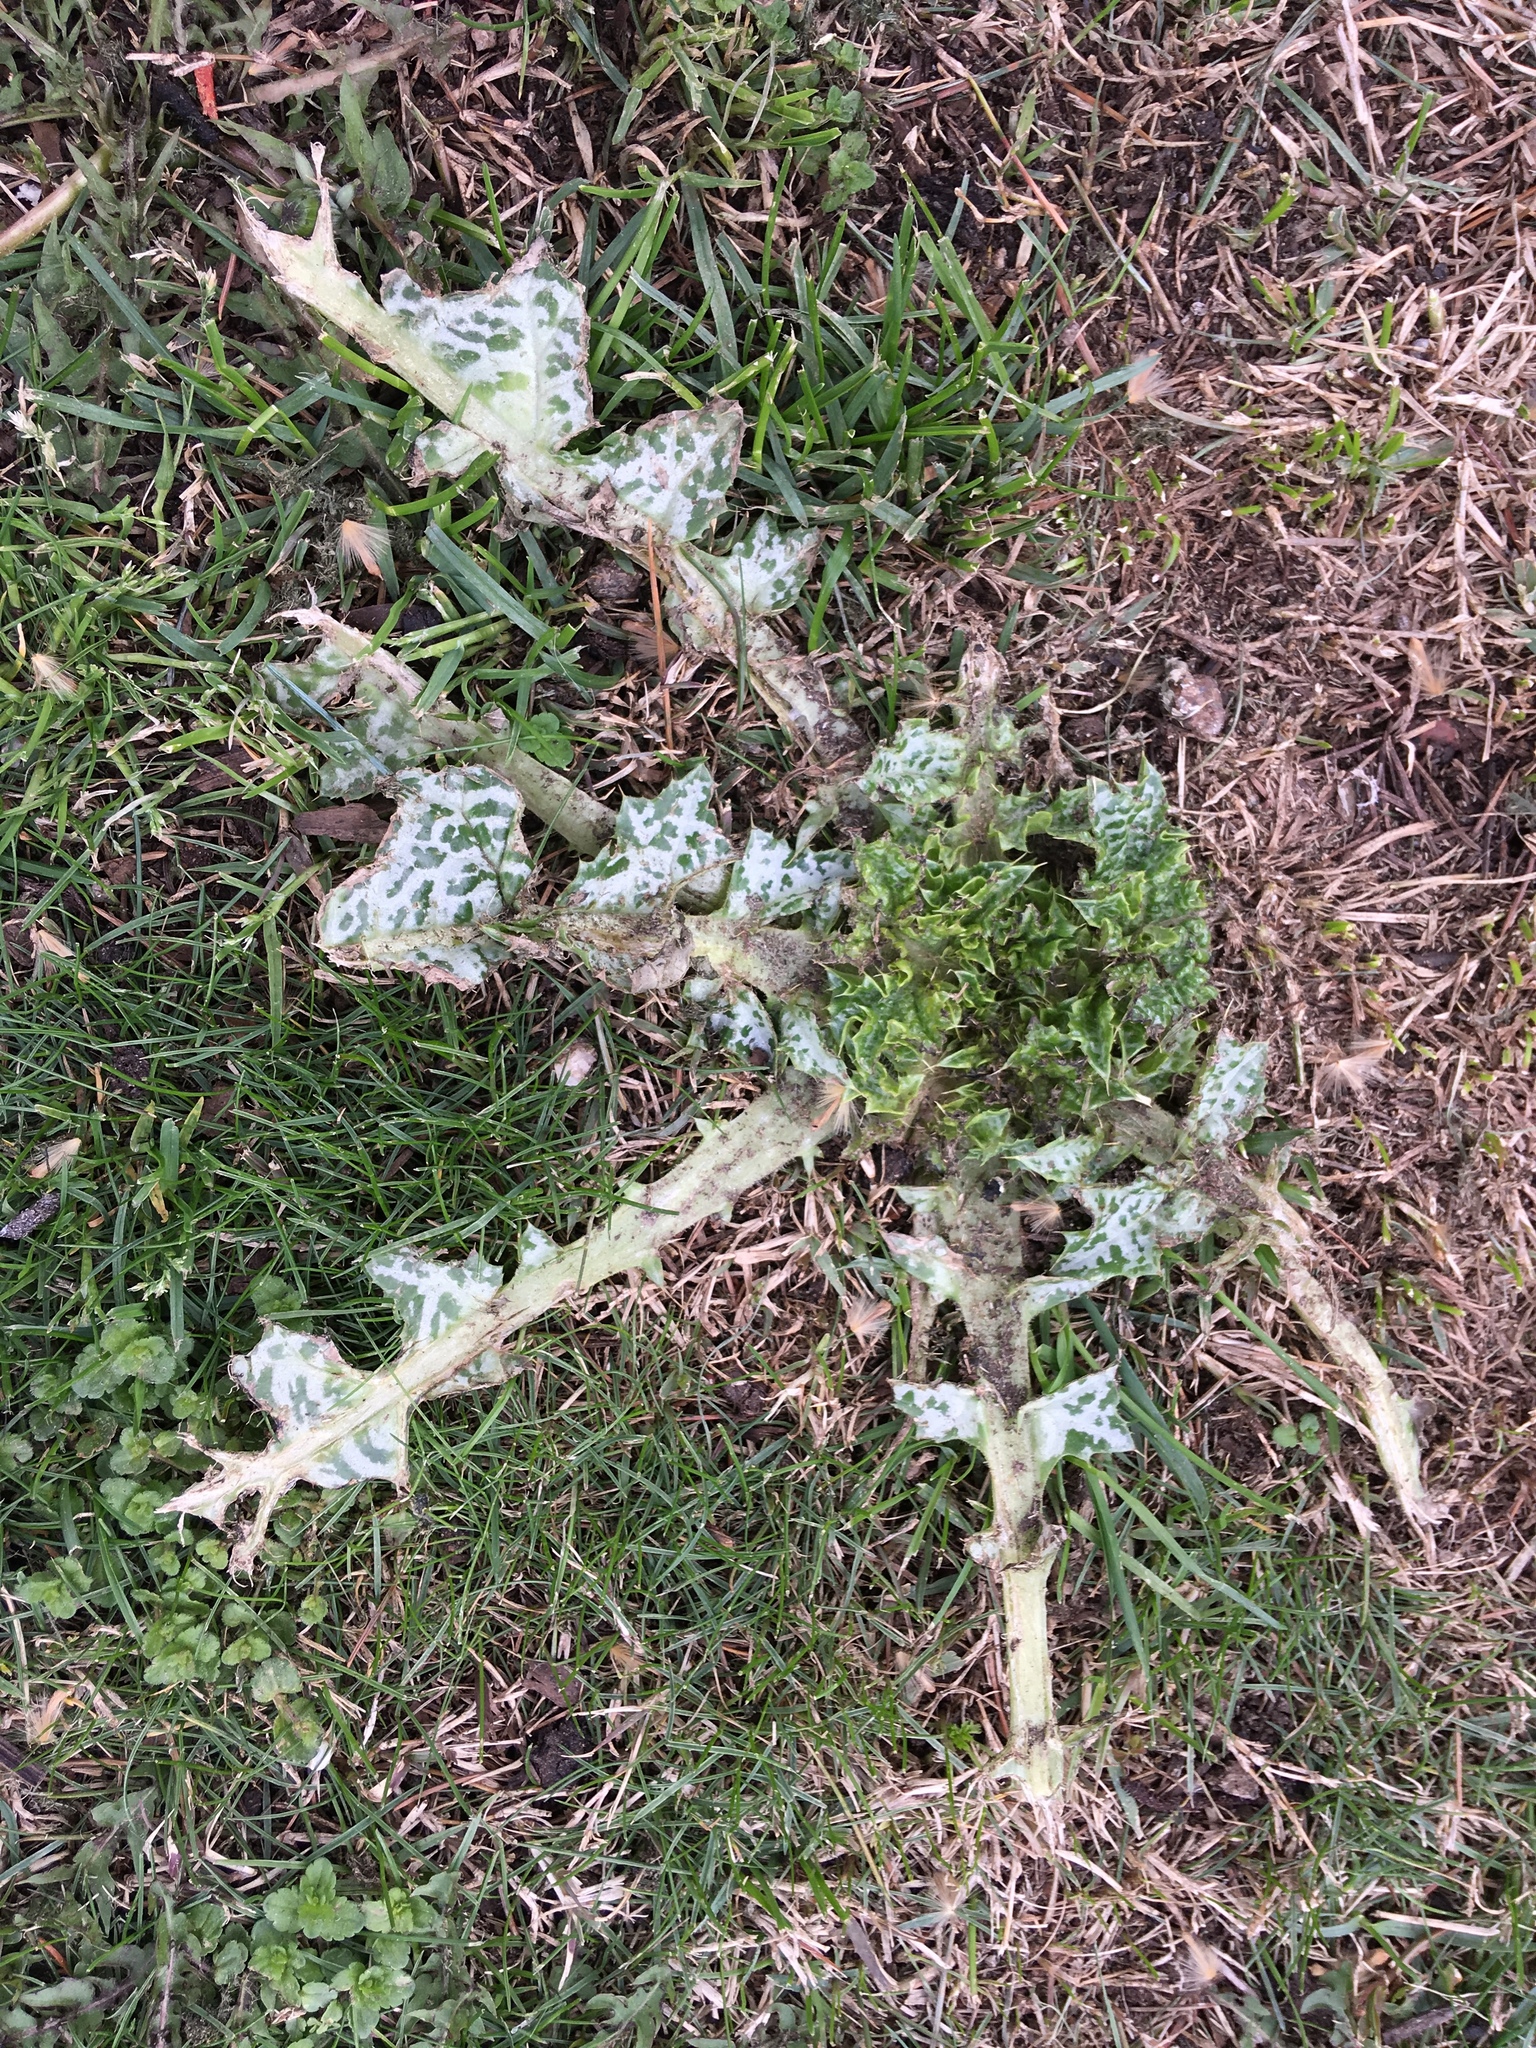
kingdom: Plantae
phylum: Tracheophyta
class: Magnoliopsida
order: Asterales
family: Asteraceae
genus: Silybum
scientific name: Silybum marianum
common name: Milk thistle
